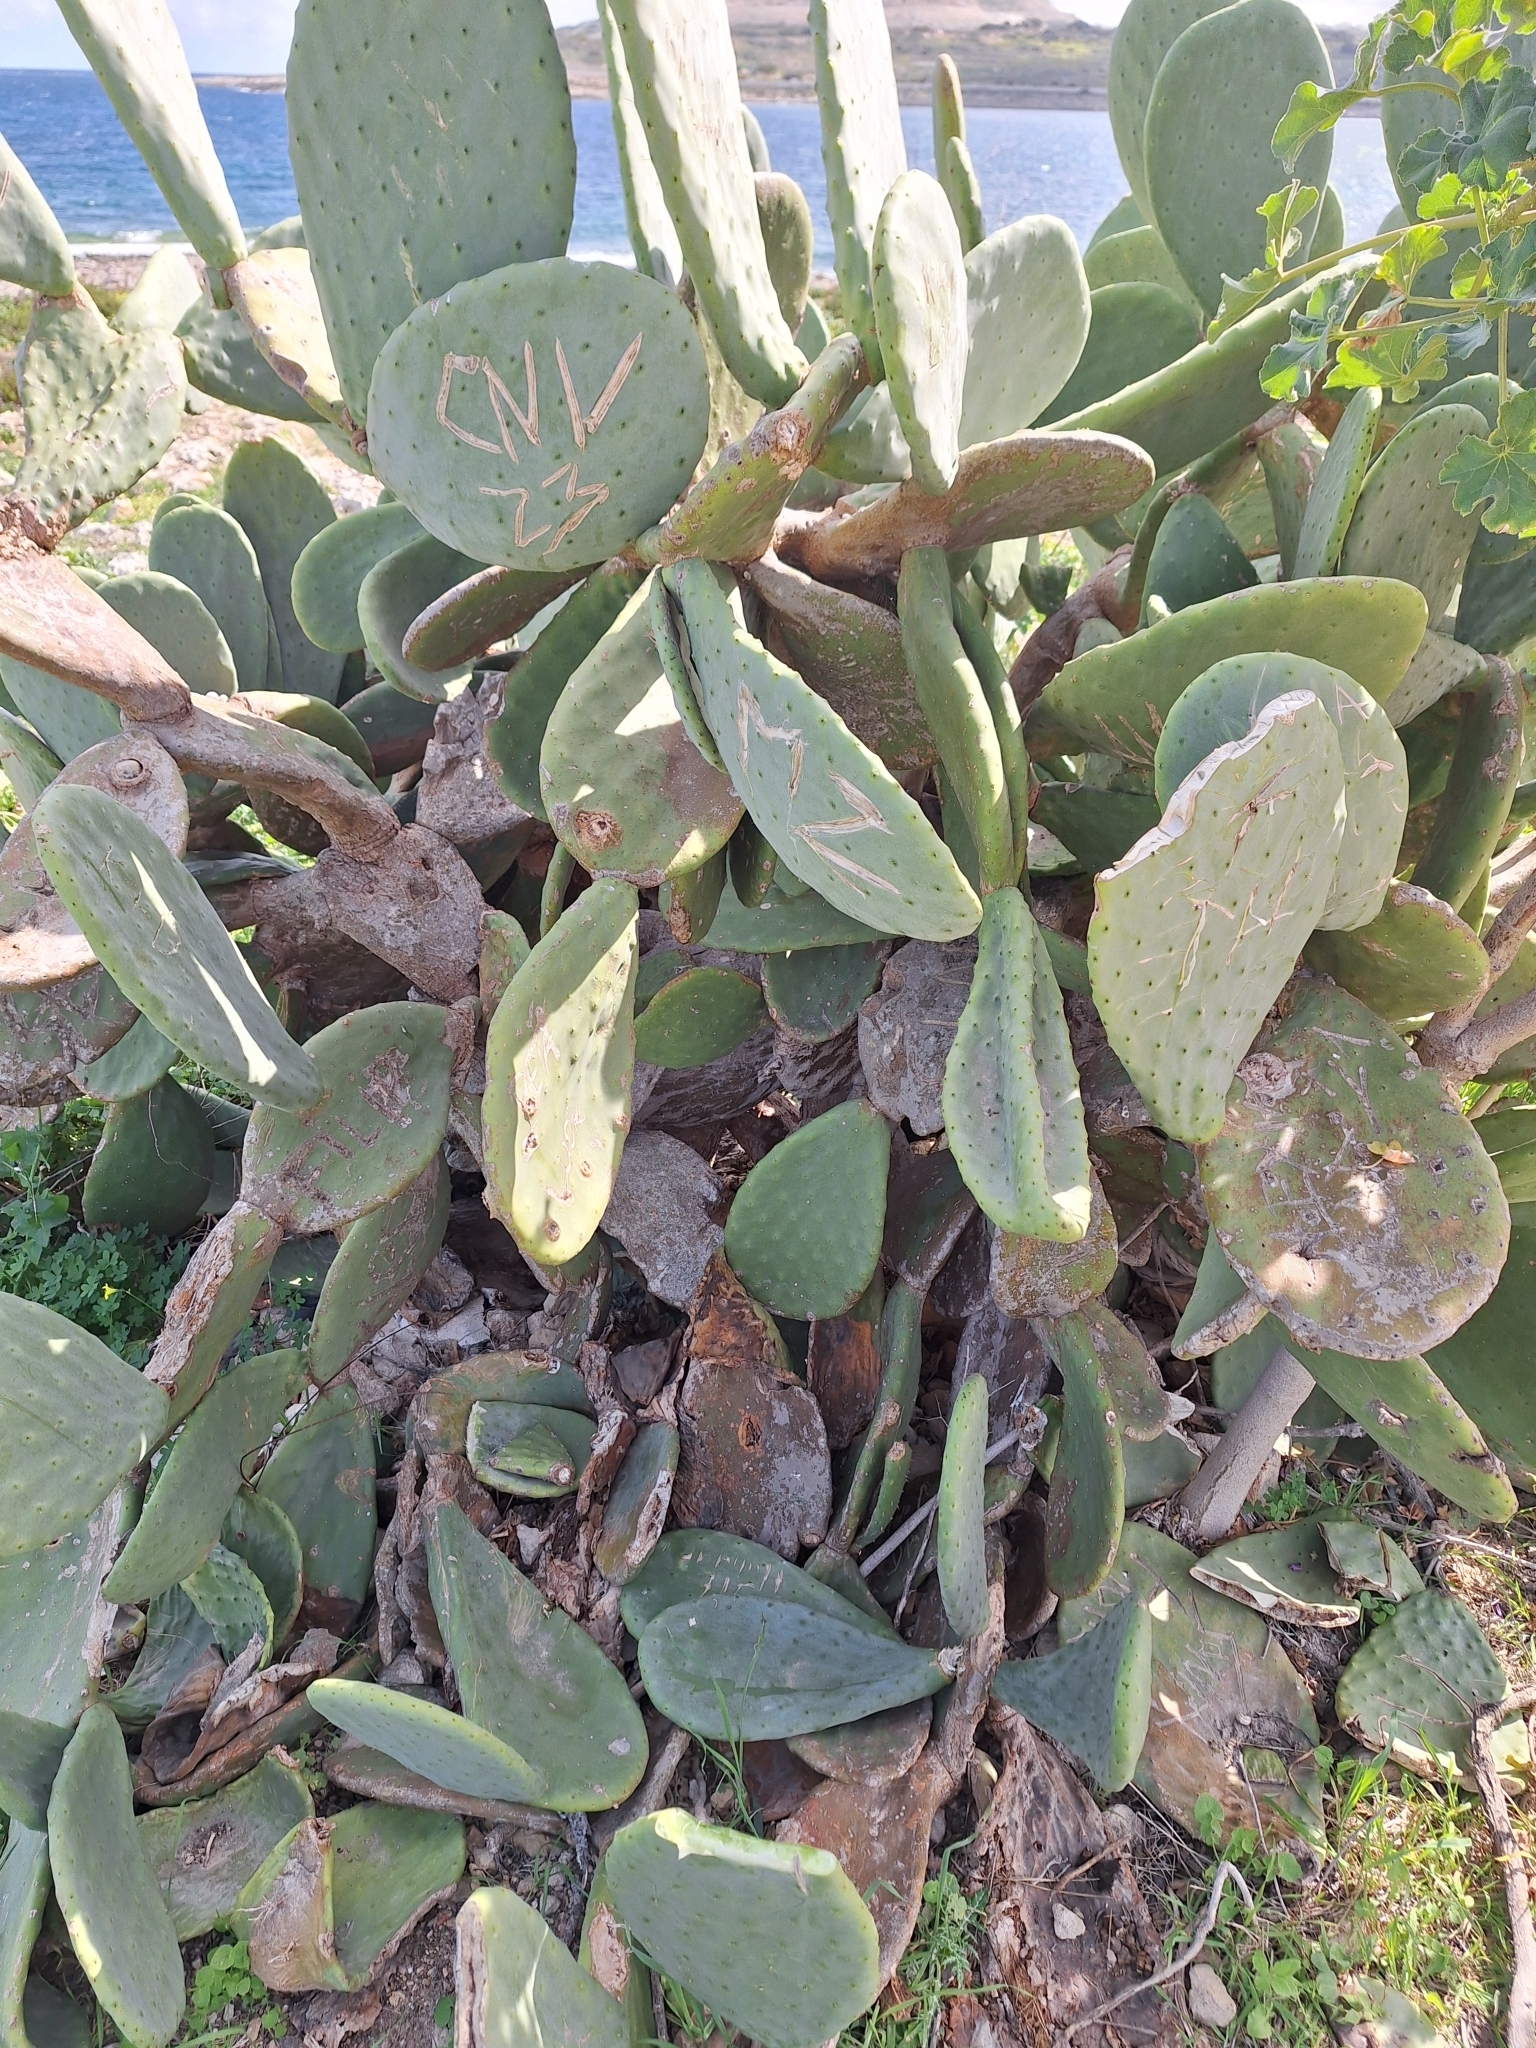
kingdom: Plantae
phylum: Tracheophyta
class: Magnoliopsida
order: Caryophyllales
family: Cactaceae
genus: Opuntia
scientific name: Opuntia ficus-indica
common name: Barbary fig
